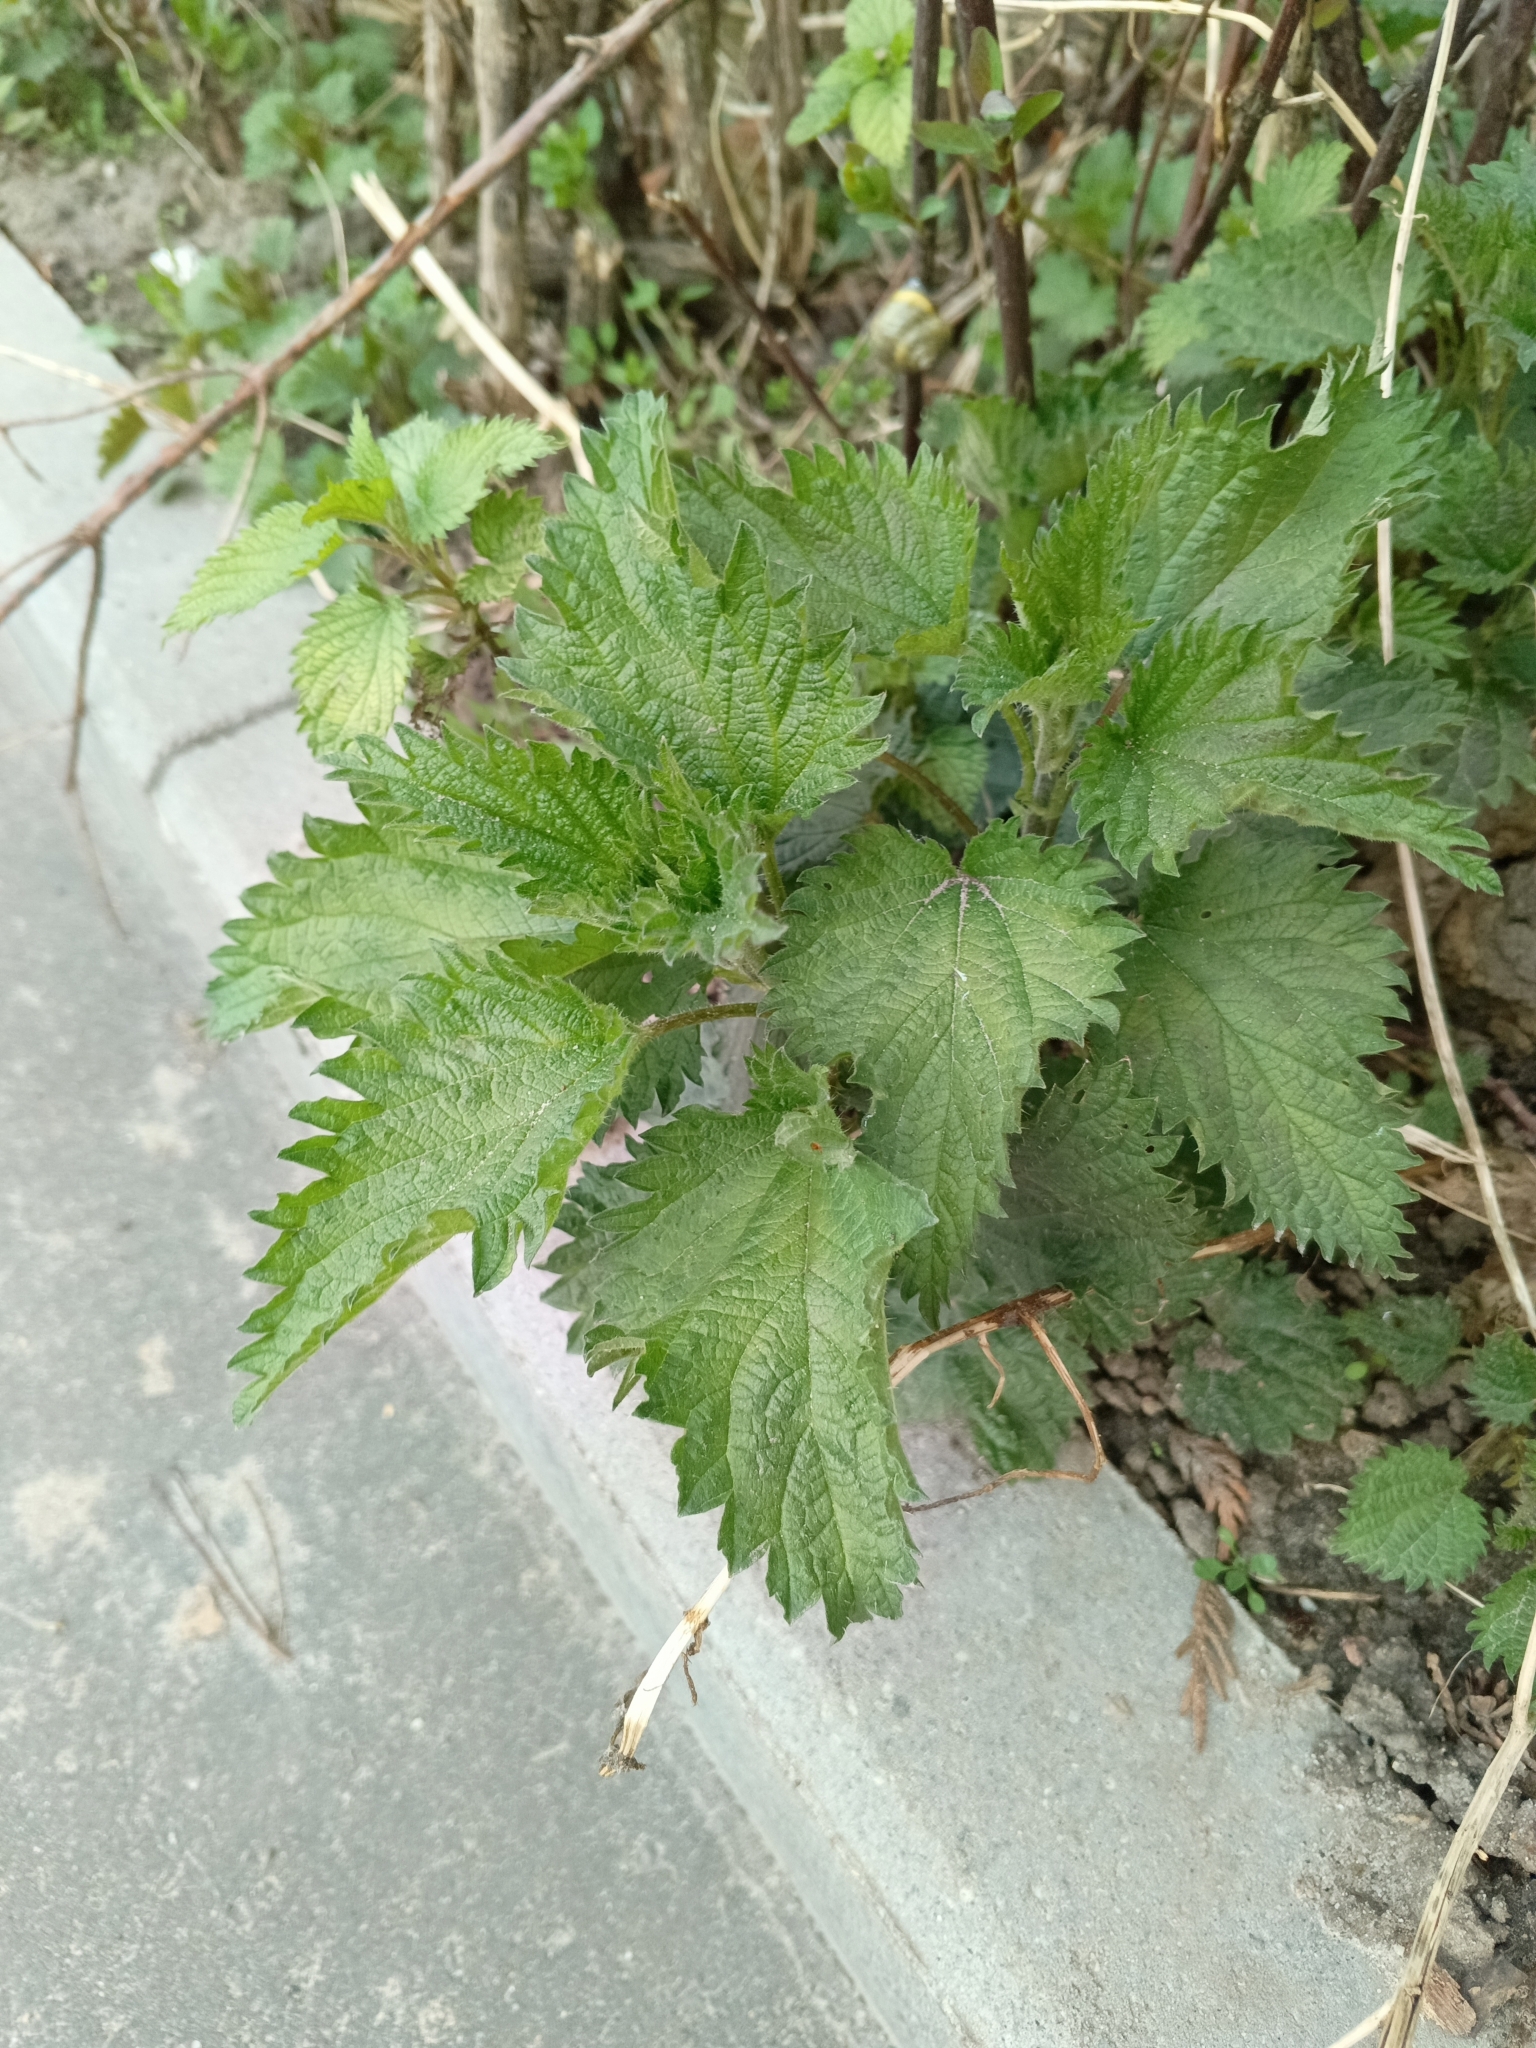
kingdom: Plantae
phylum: Tracheophyta
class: Magnoliopsida
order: Rosales
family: Urticaceae
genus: Urtica
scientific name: Urtica dioica
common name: Common nettle
